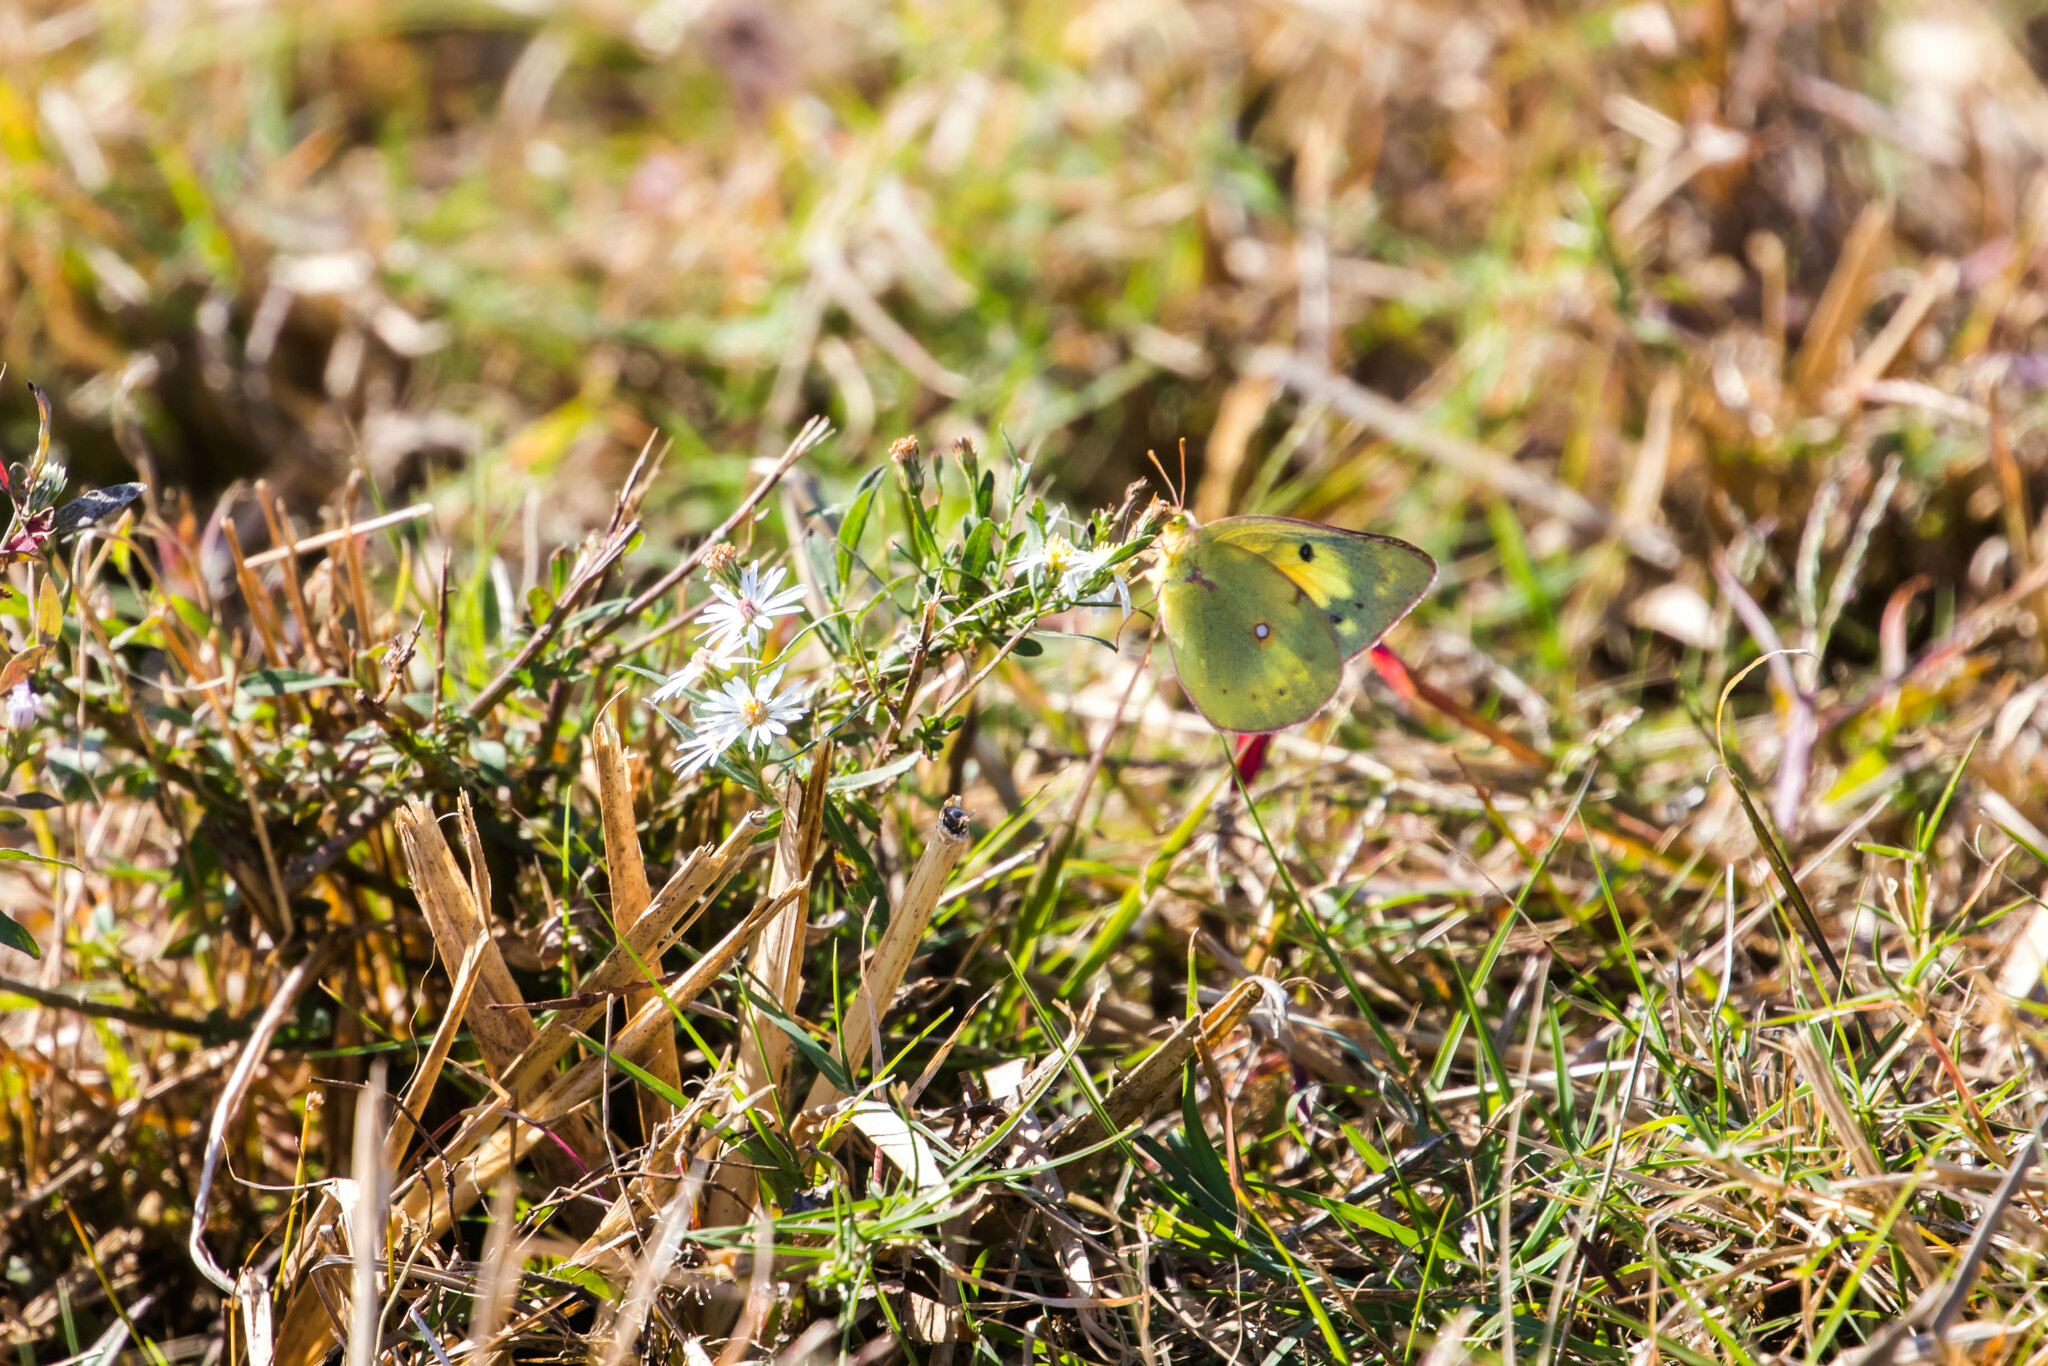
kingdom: Animalia
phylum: Arthropoda
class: Insecta
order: Lepidoptera
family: Pieridae
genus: Colias
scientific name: Colias eurytheme
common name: Alfalfa butterfly
